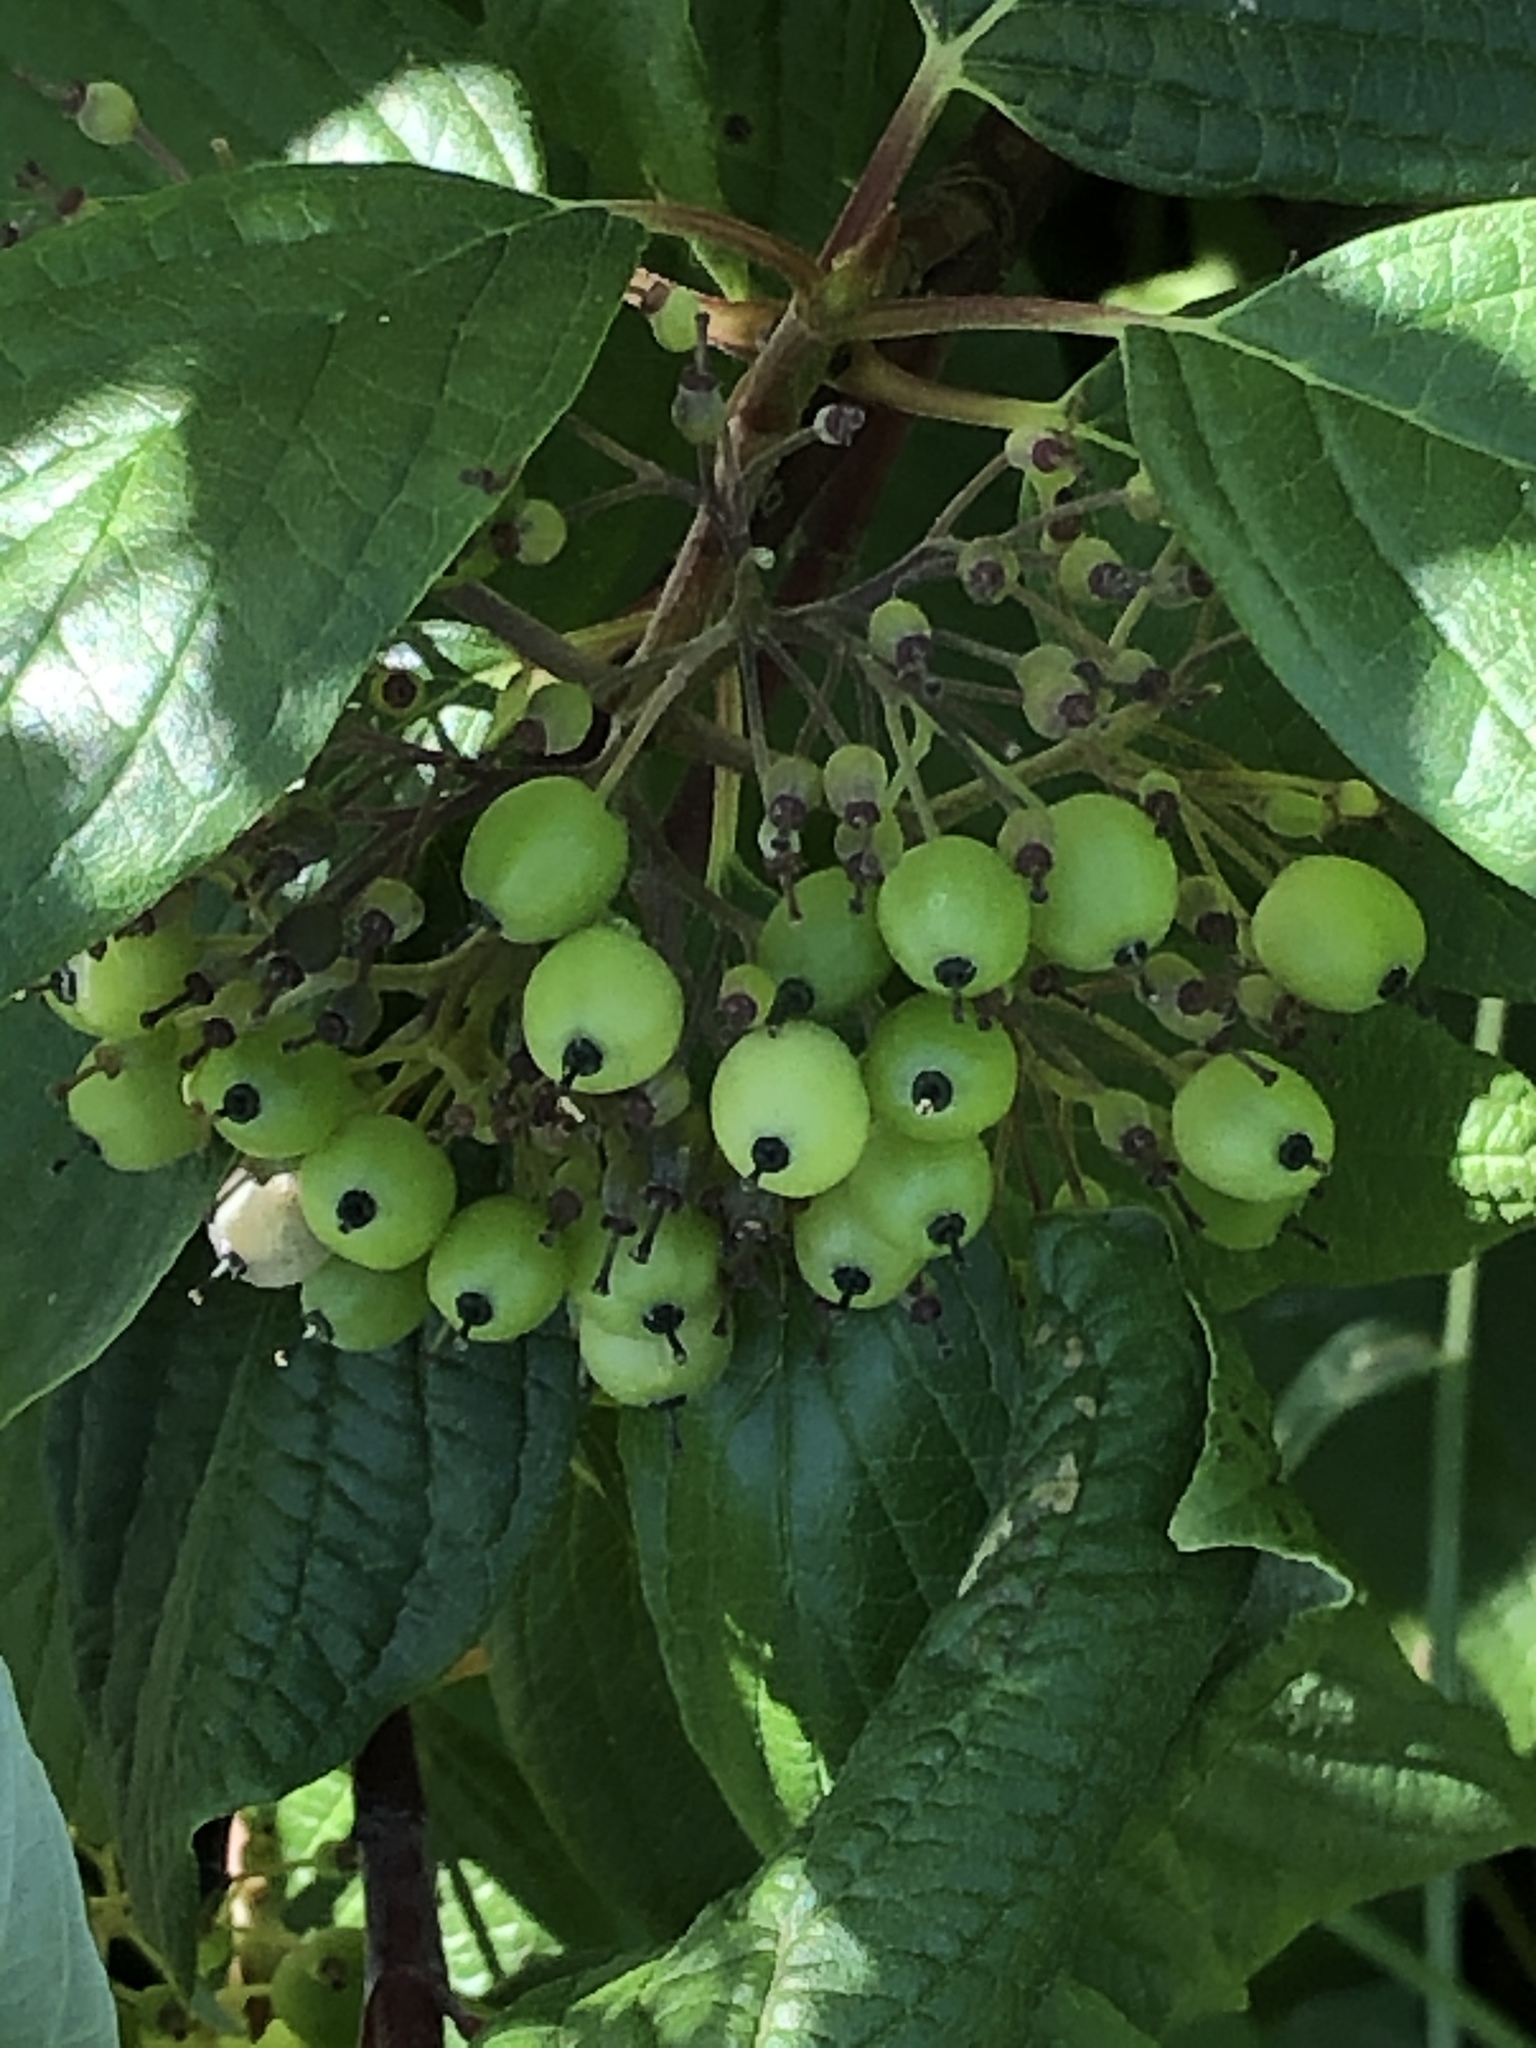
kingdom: Plantae
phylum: Tracheophyta
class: Magnoliopsida
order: Cornales
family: Cornaceae
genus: Cornus
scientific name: Cornus sericea
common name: Red-osier dogwood
